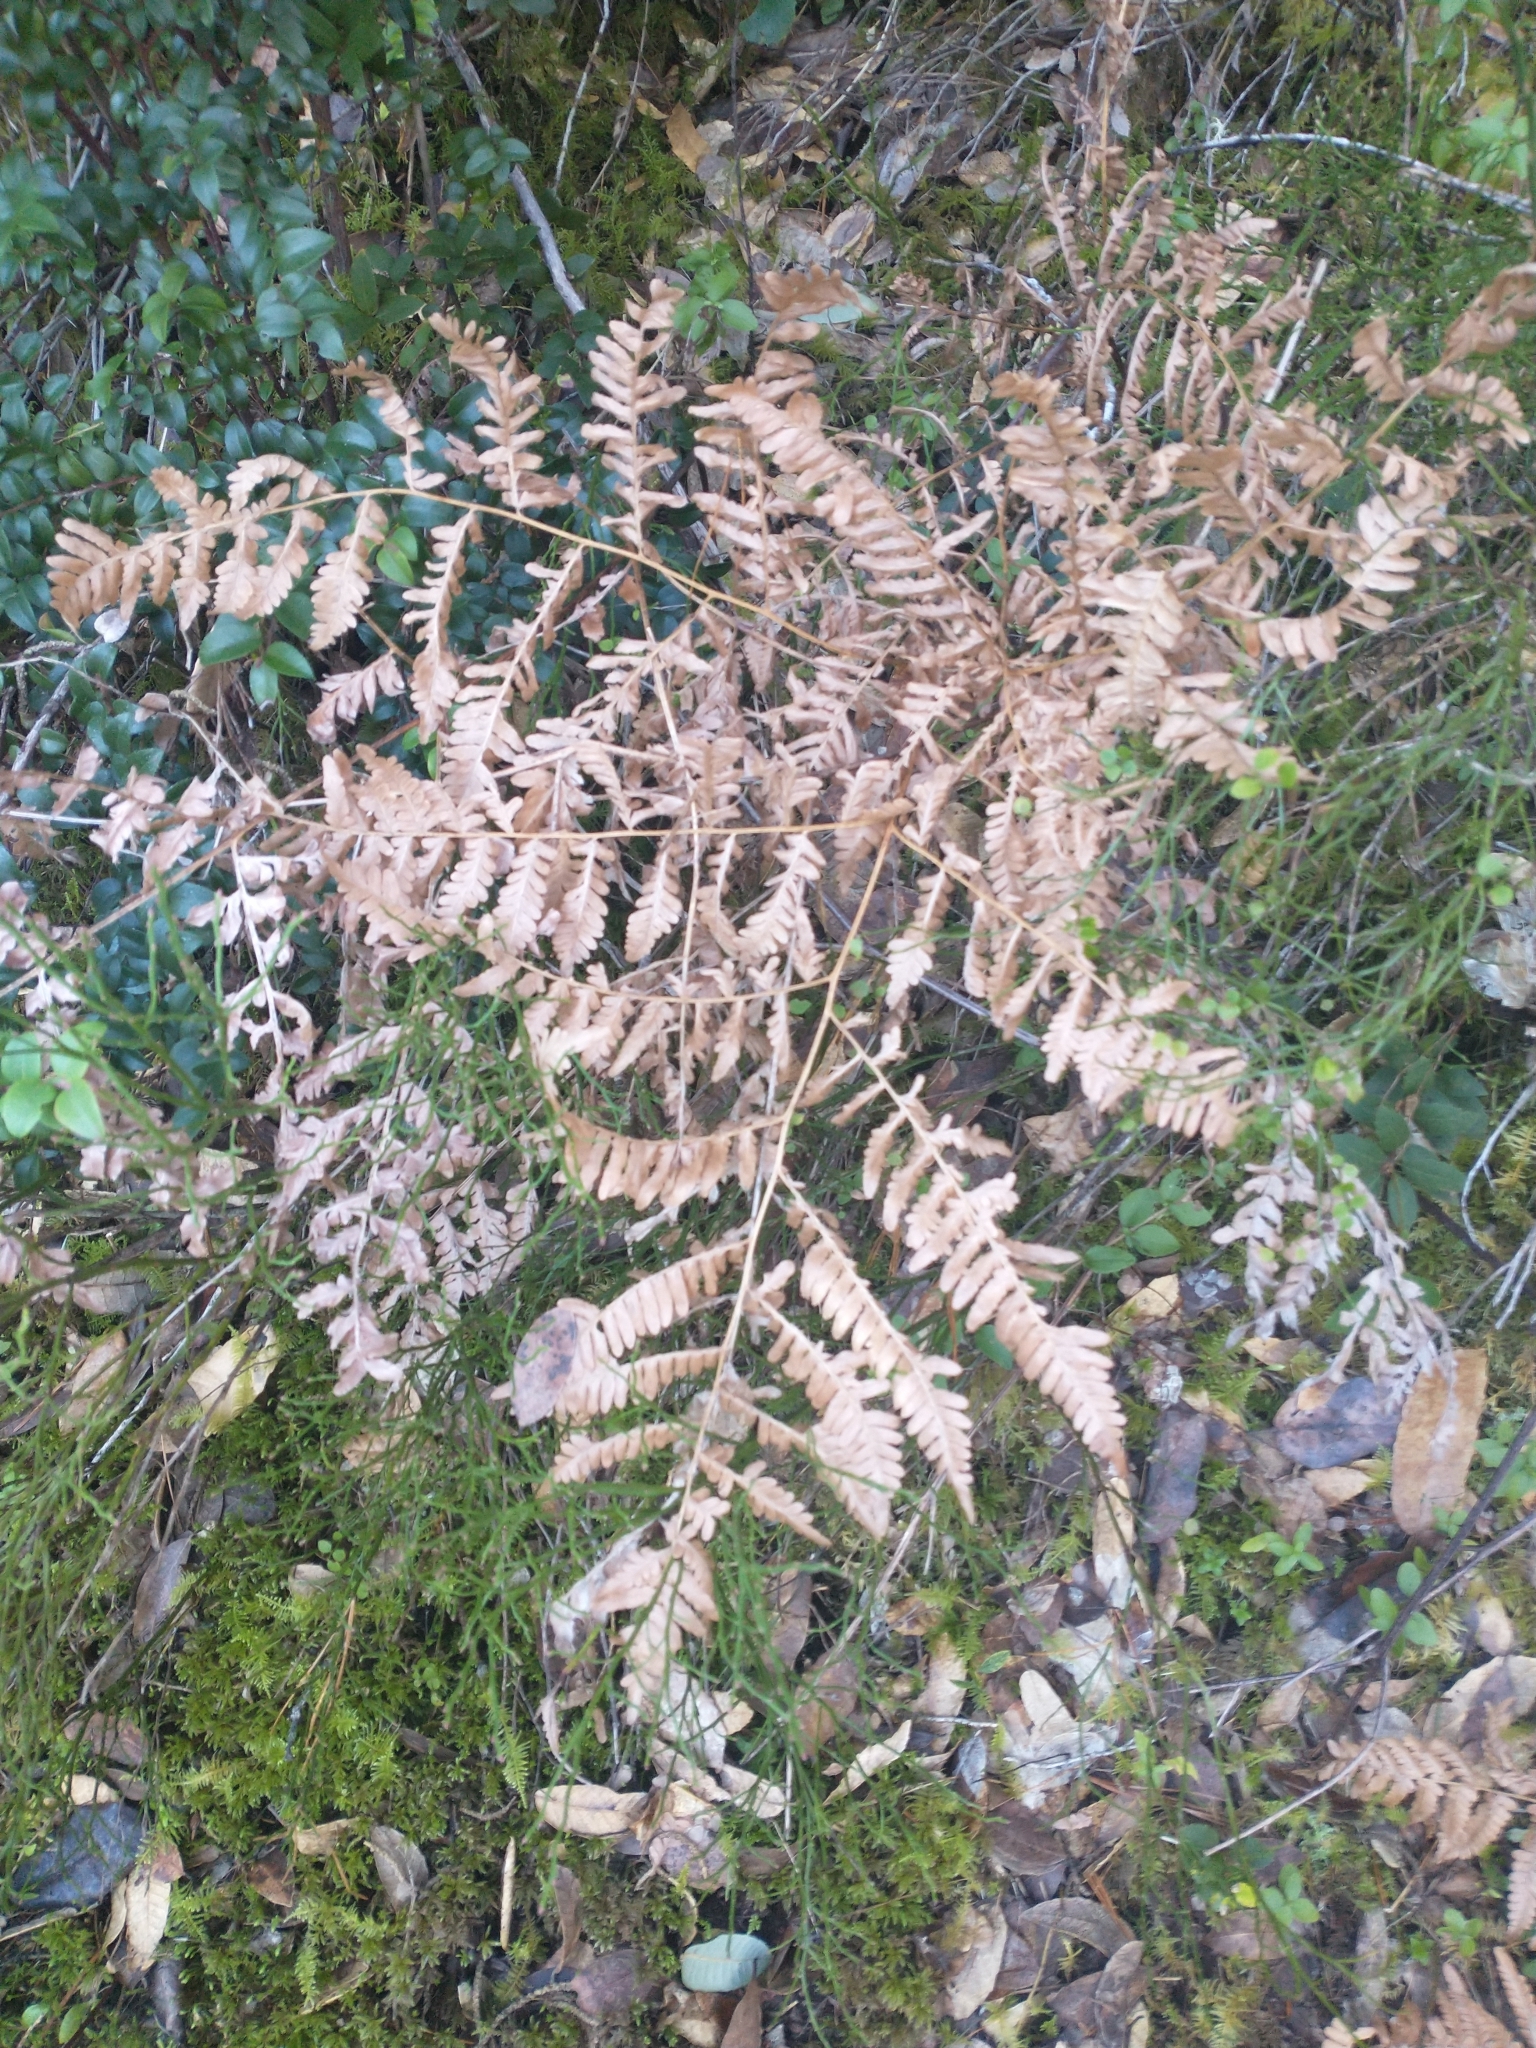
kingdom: Plantae
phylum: Tracheophyta
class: Polypodiopsida
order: Polypodiales
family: Dennstaedtiaceae
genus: Pteridium
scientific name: Pteridium aquilinum
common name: Bracken
